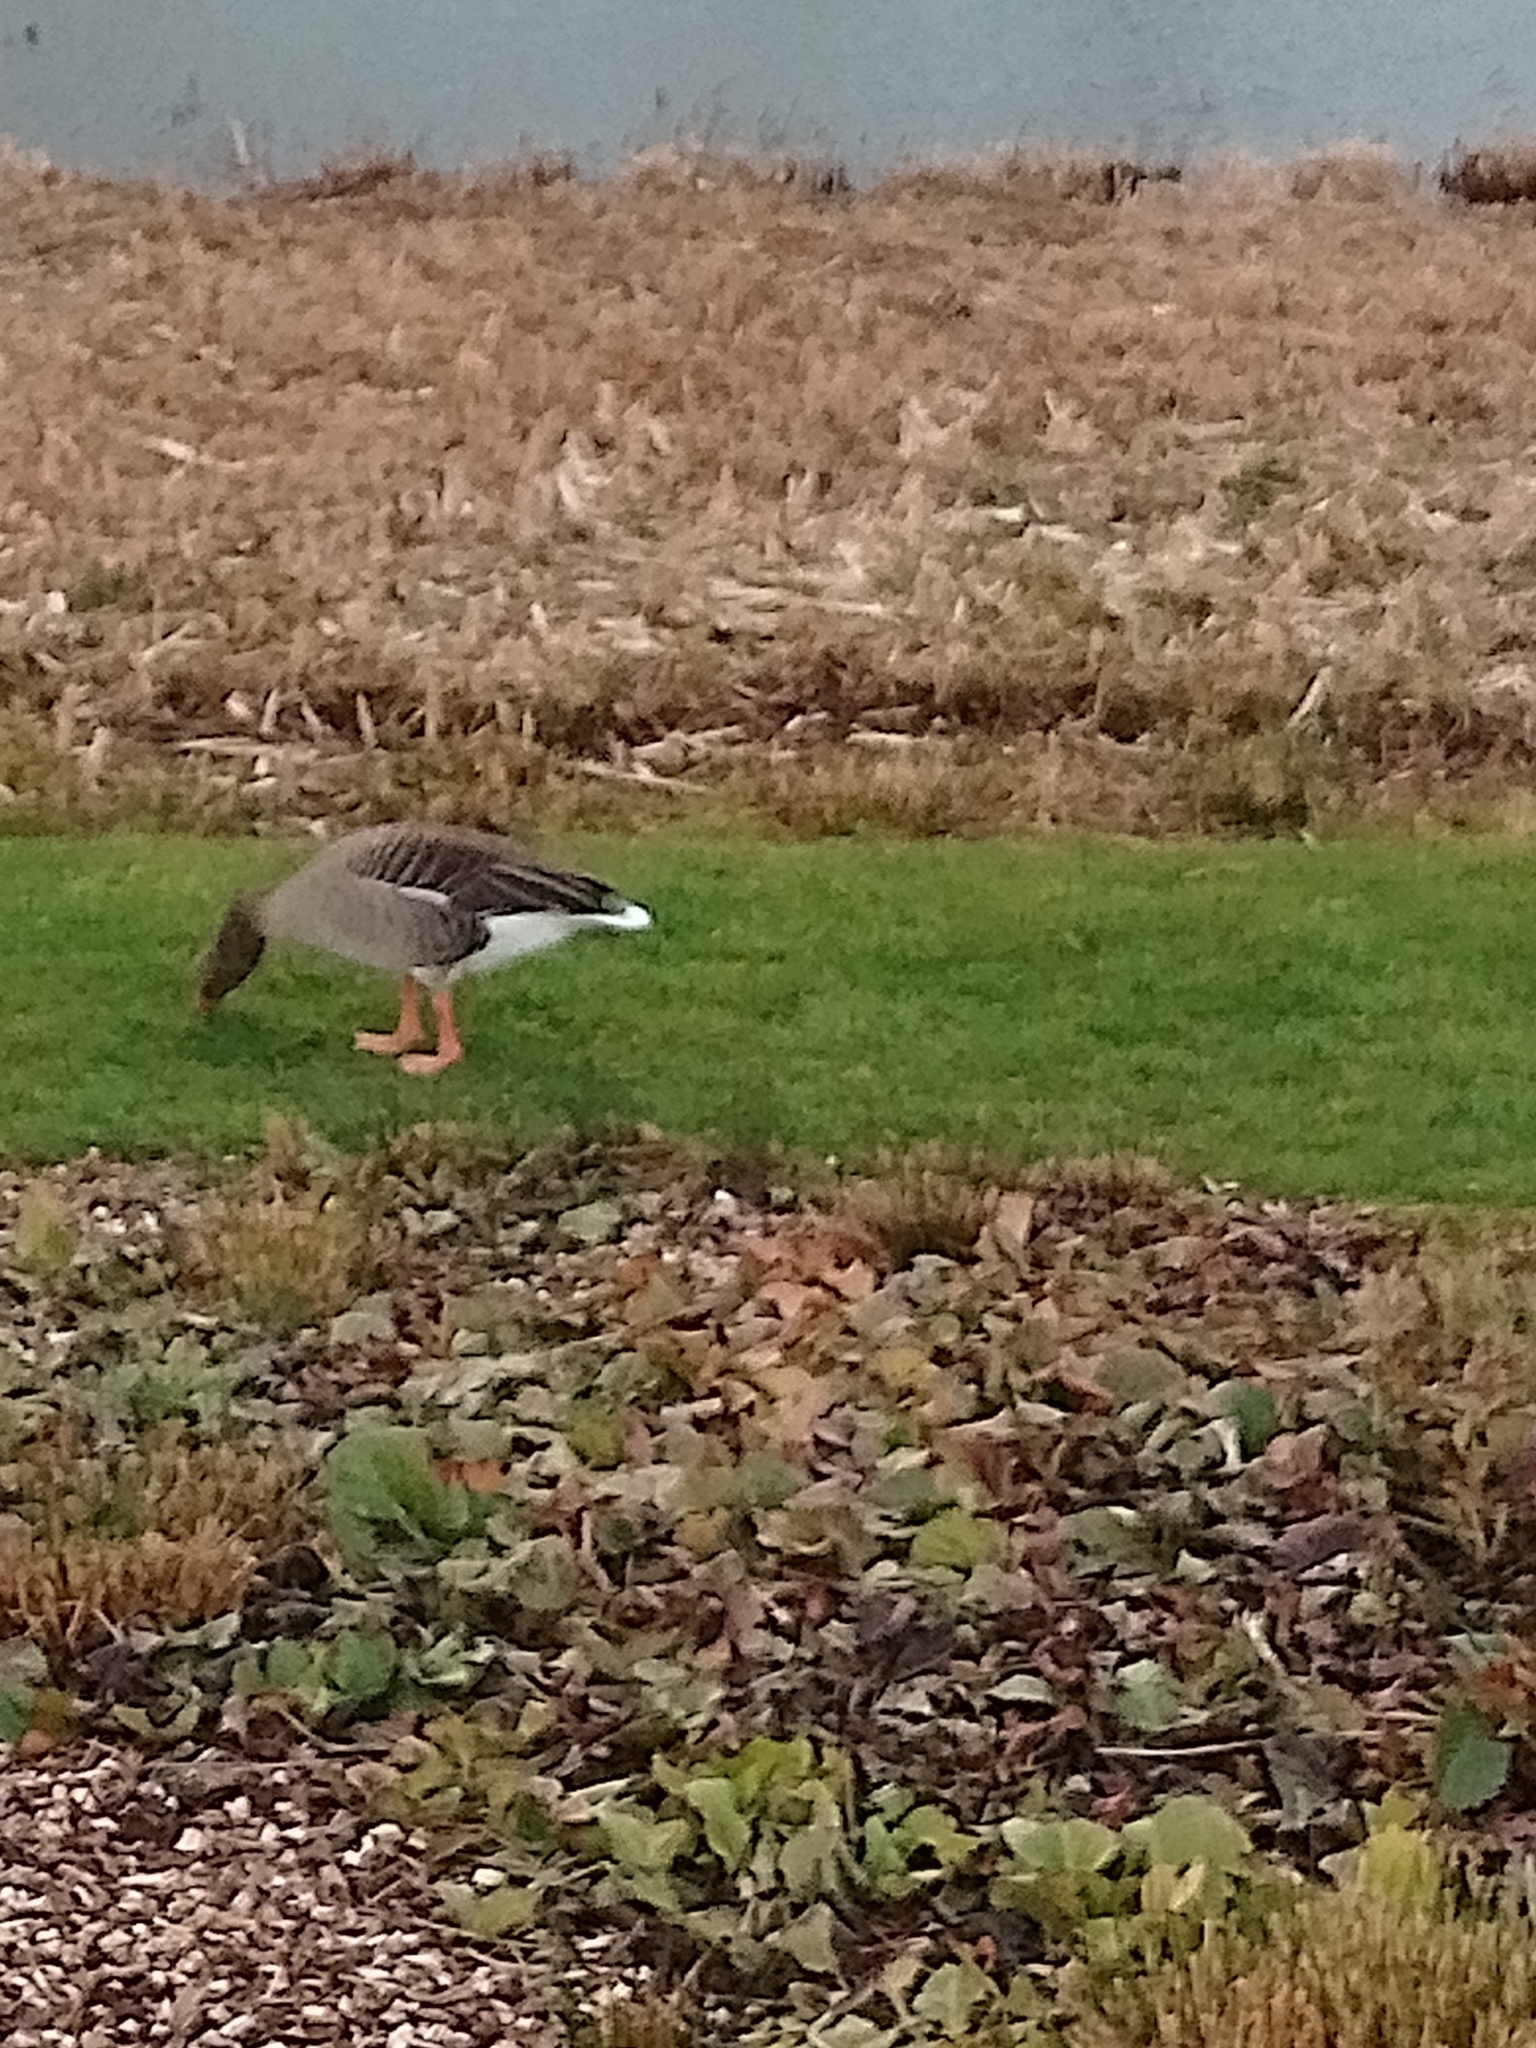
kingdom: Animalia
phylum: Chordata
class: Aves
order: Anseriformes
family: Anatidae
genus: Anser
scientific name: Anser anser
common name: Greylag goose
